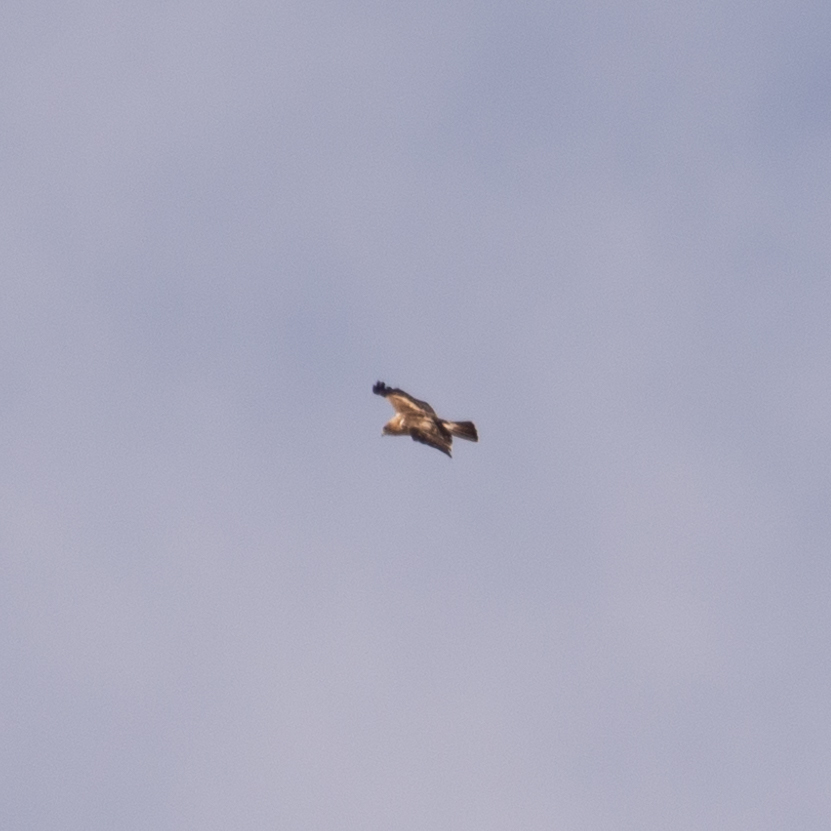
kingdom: Animalia
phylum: Chordata
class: Aves
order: Accipitriformes
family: Accipitridae
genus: Hieraaetus
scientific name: Hieraaetus pennatus
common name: Booted eagle
